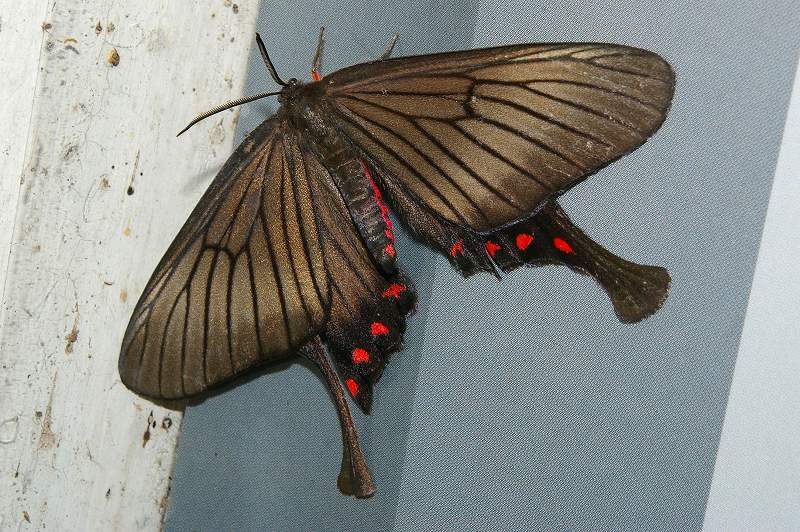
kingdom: Animalia
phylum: Arthropoda
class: Insecta
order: Lepidoptera
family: Epicopeiidae
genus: Epicopeia
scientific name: Epicopeia hainesii
